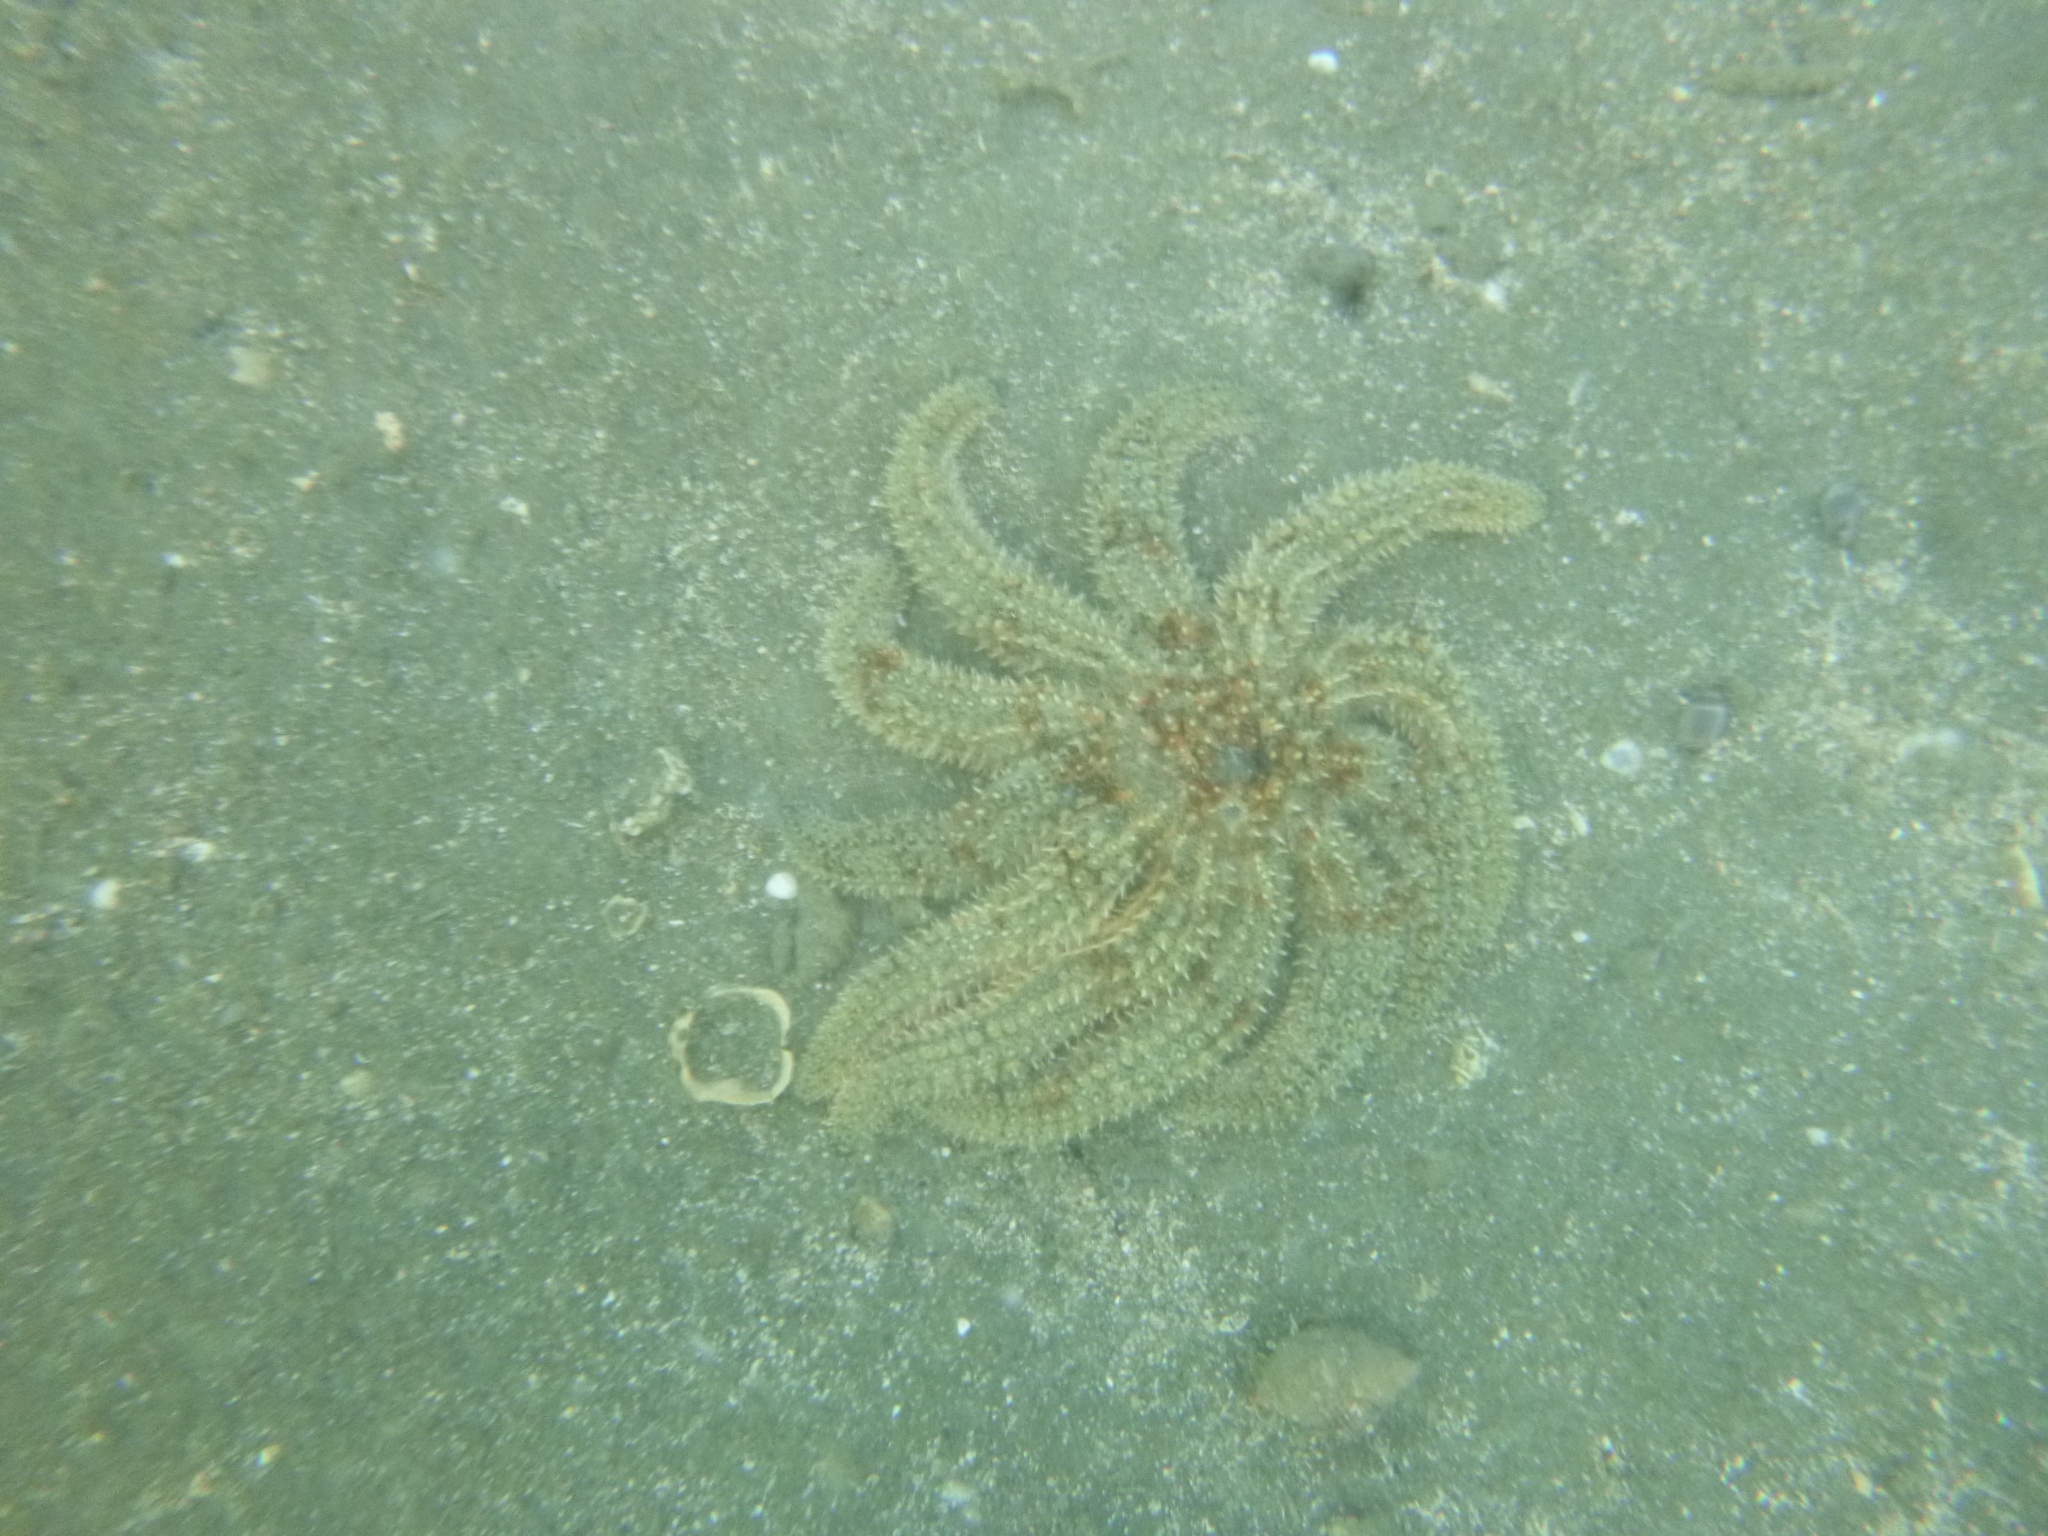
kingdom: Animalia
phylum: Echinodermata
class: Asteroidea
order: Forcipulatida
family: Asteriidae
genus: Coscinasterias
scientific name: Coscinasterias muricata
